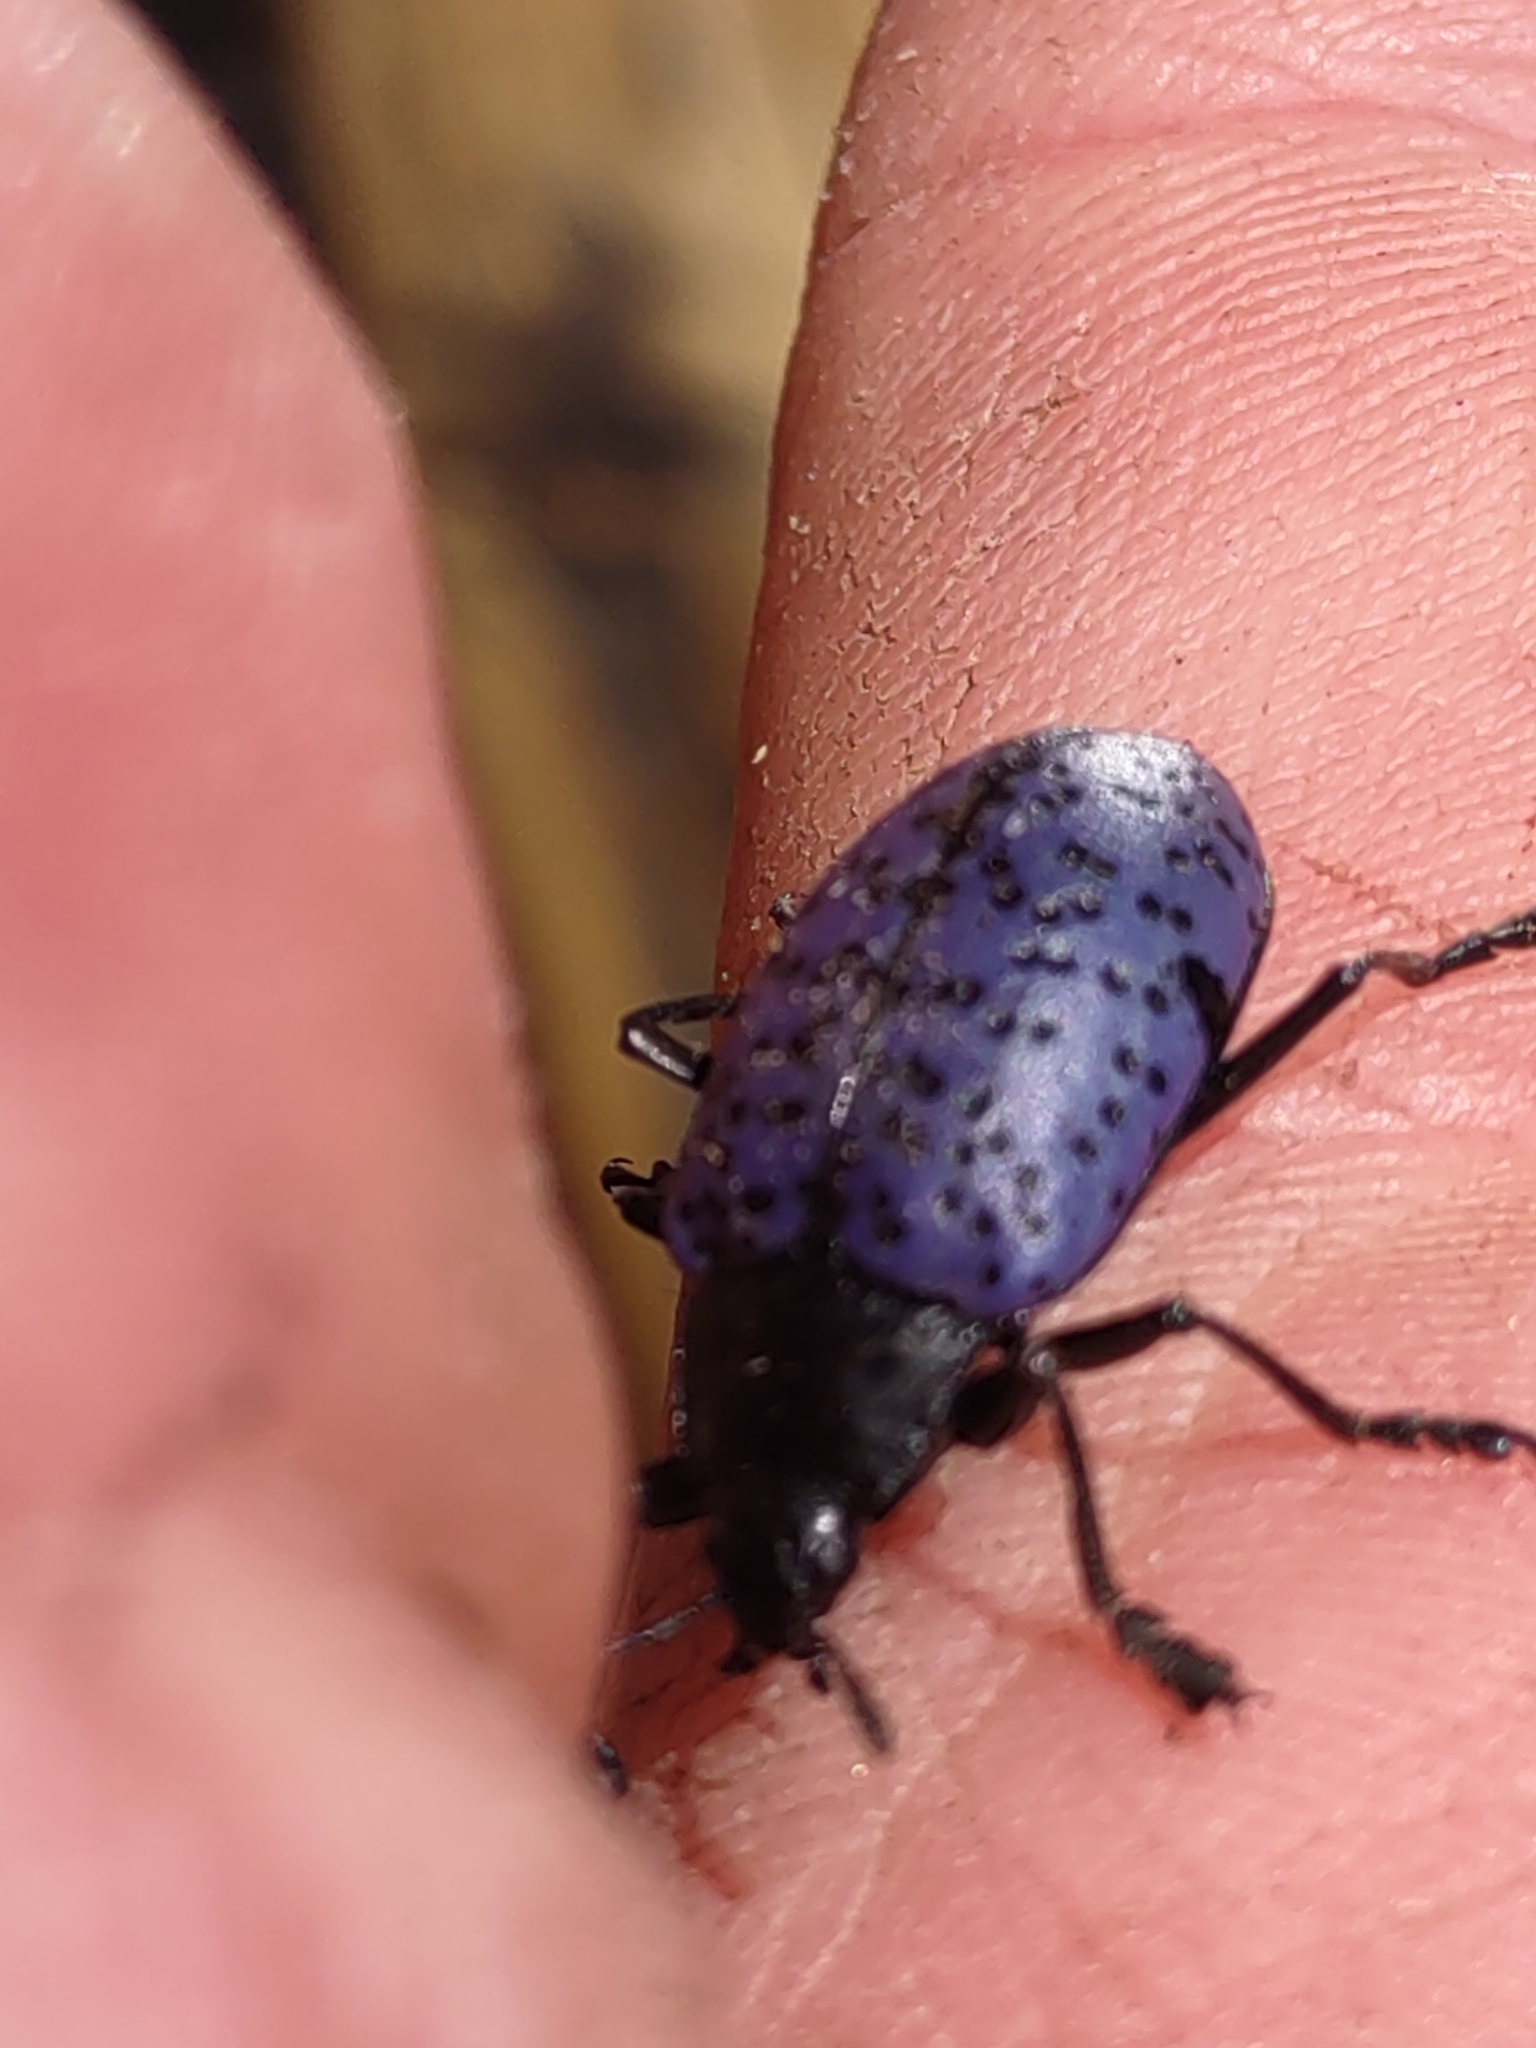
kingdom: Animalia
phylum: Arthropoda
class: Insecta
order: Coleoptera
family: Erotylidae
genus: Gibbifer
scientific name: Gibbifer californicus
